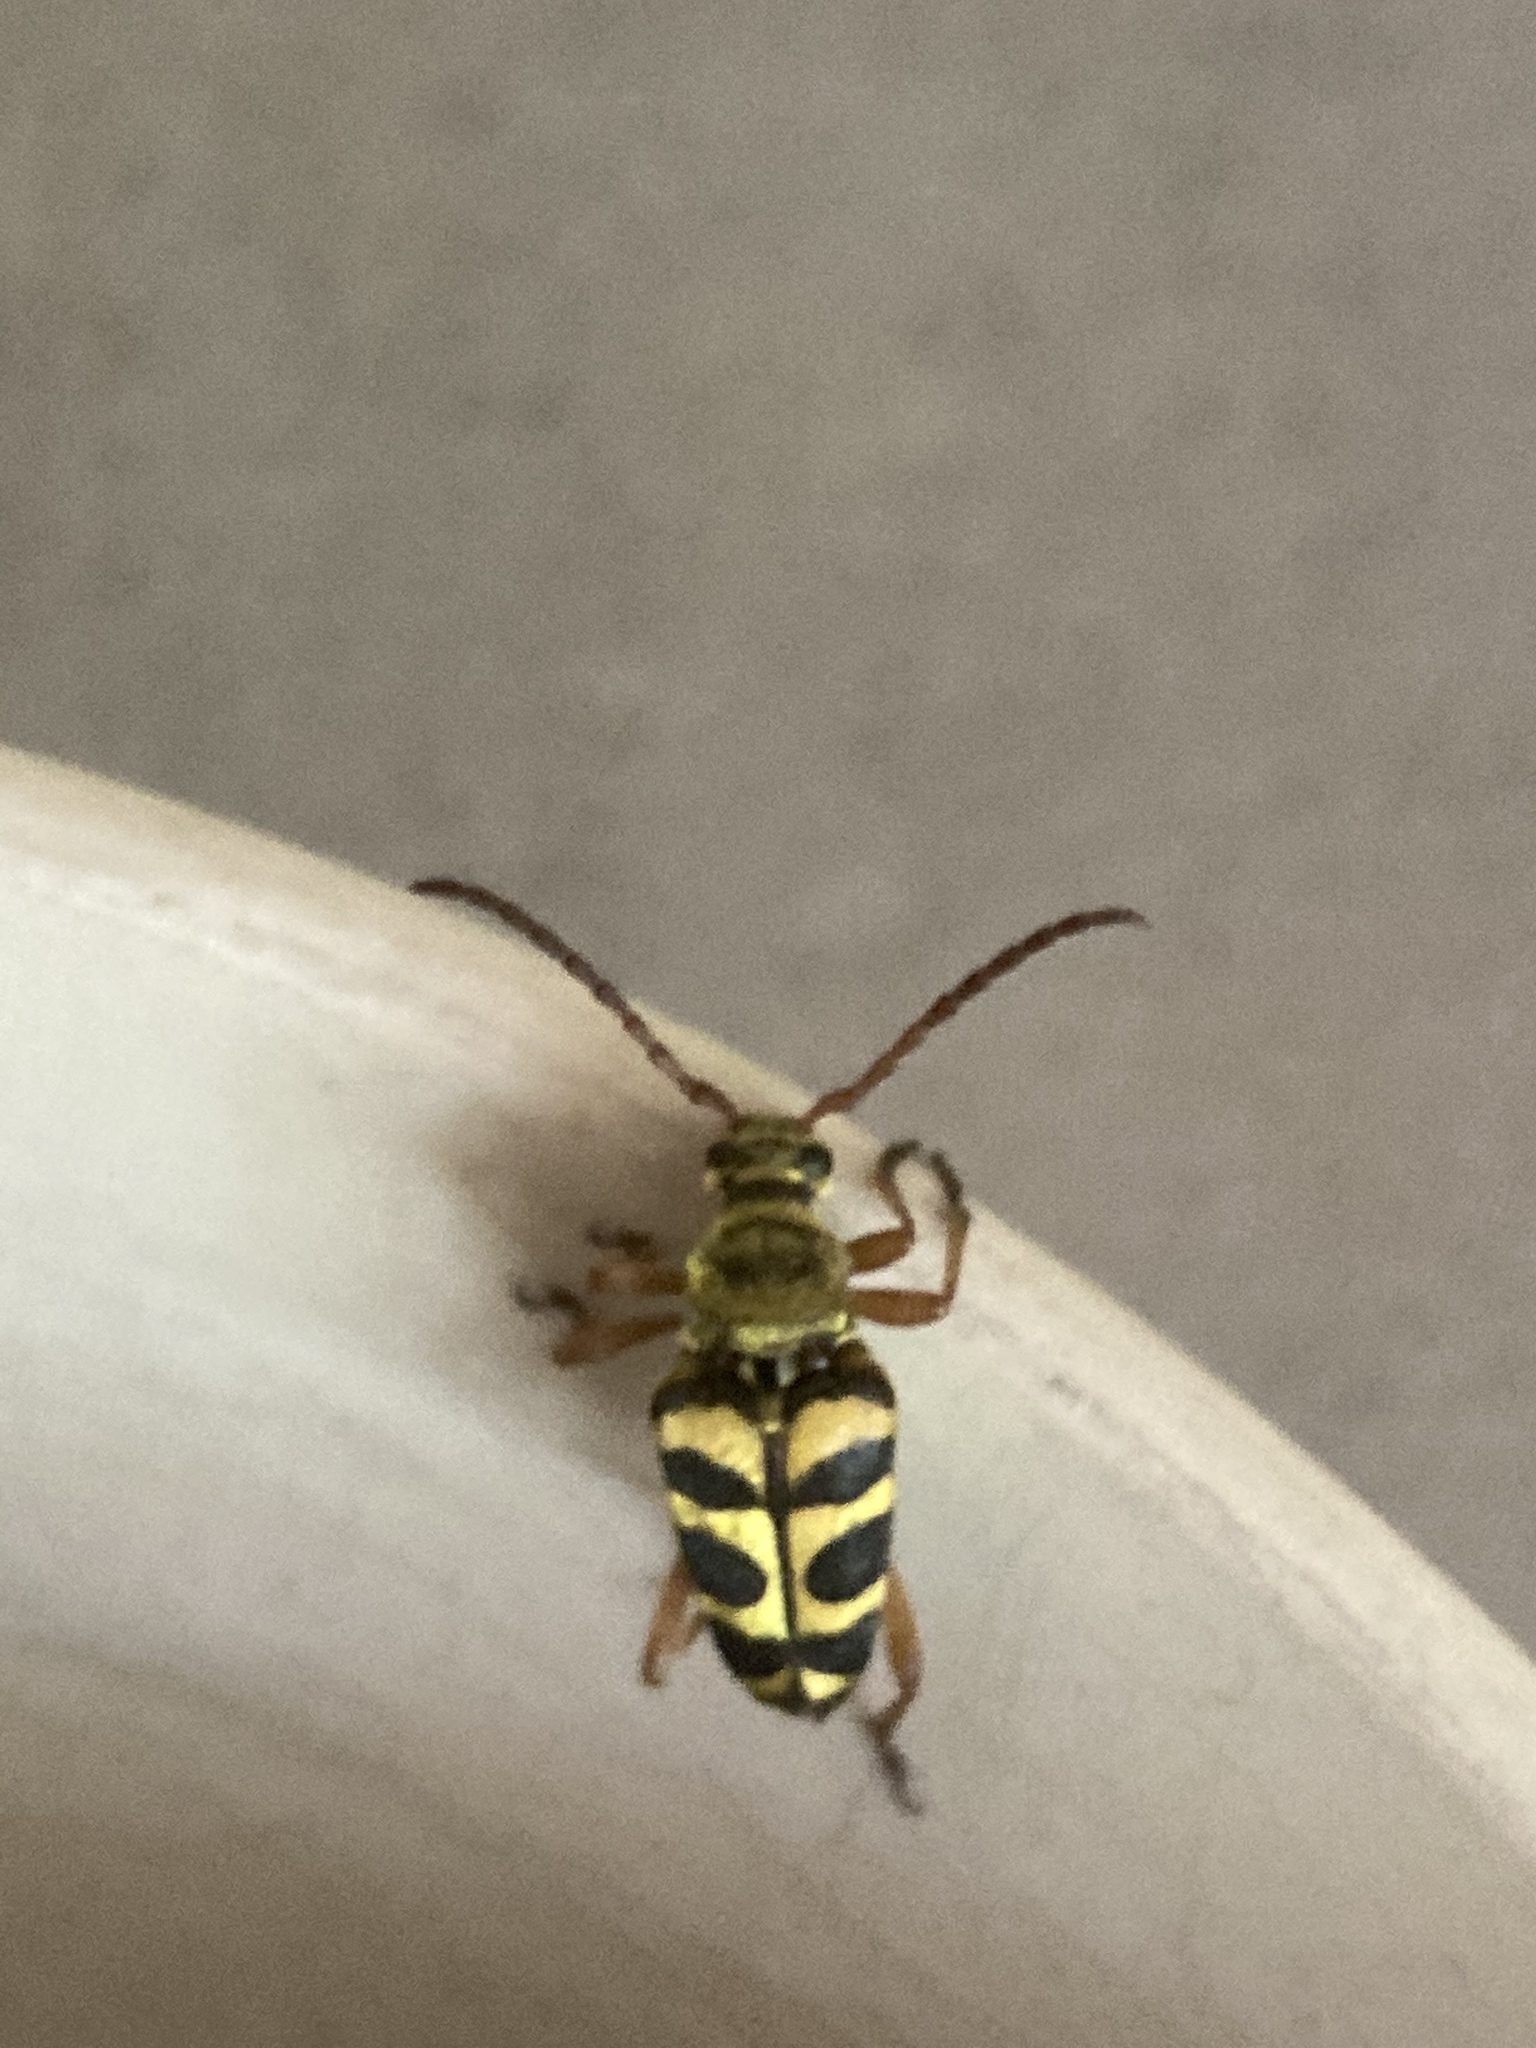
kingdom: Animalia
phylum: Arthropoda
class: Insecta
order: Coleoptera
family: Cerambycidae
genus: Strophiona
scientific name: Strophiona tigrina
